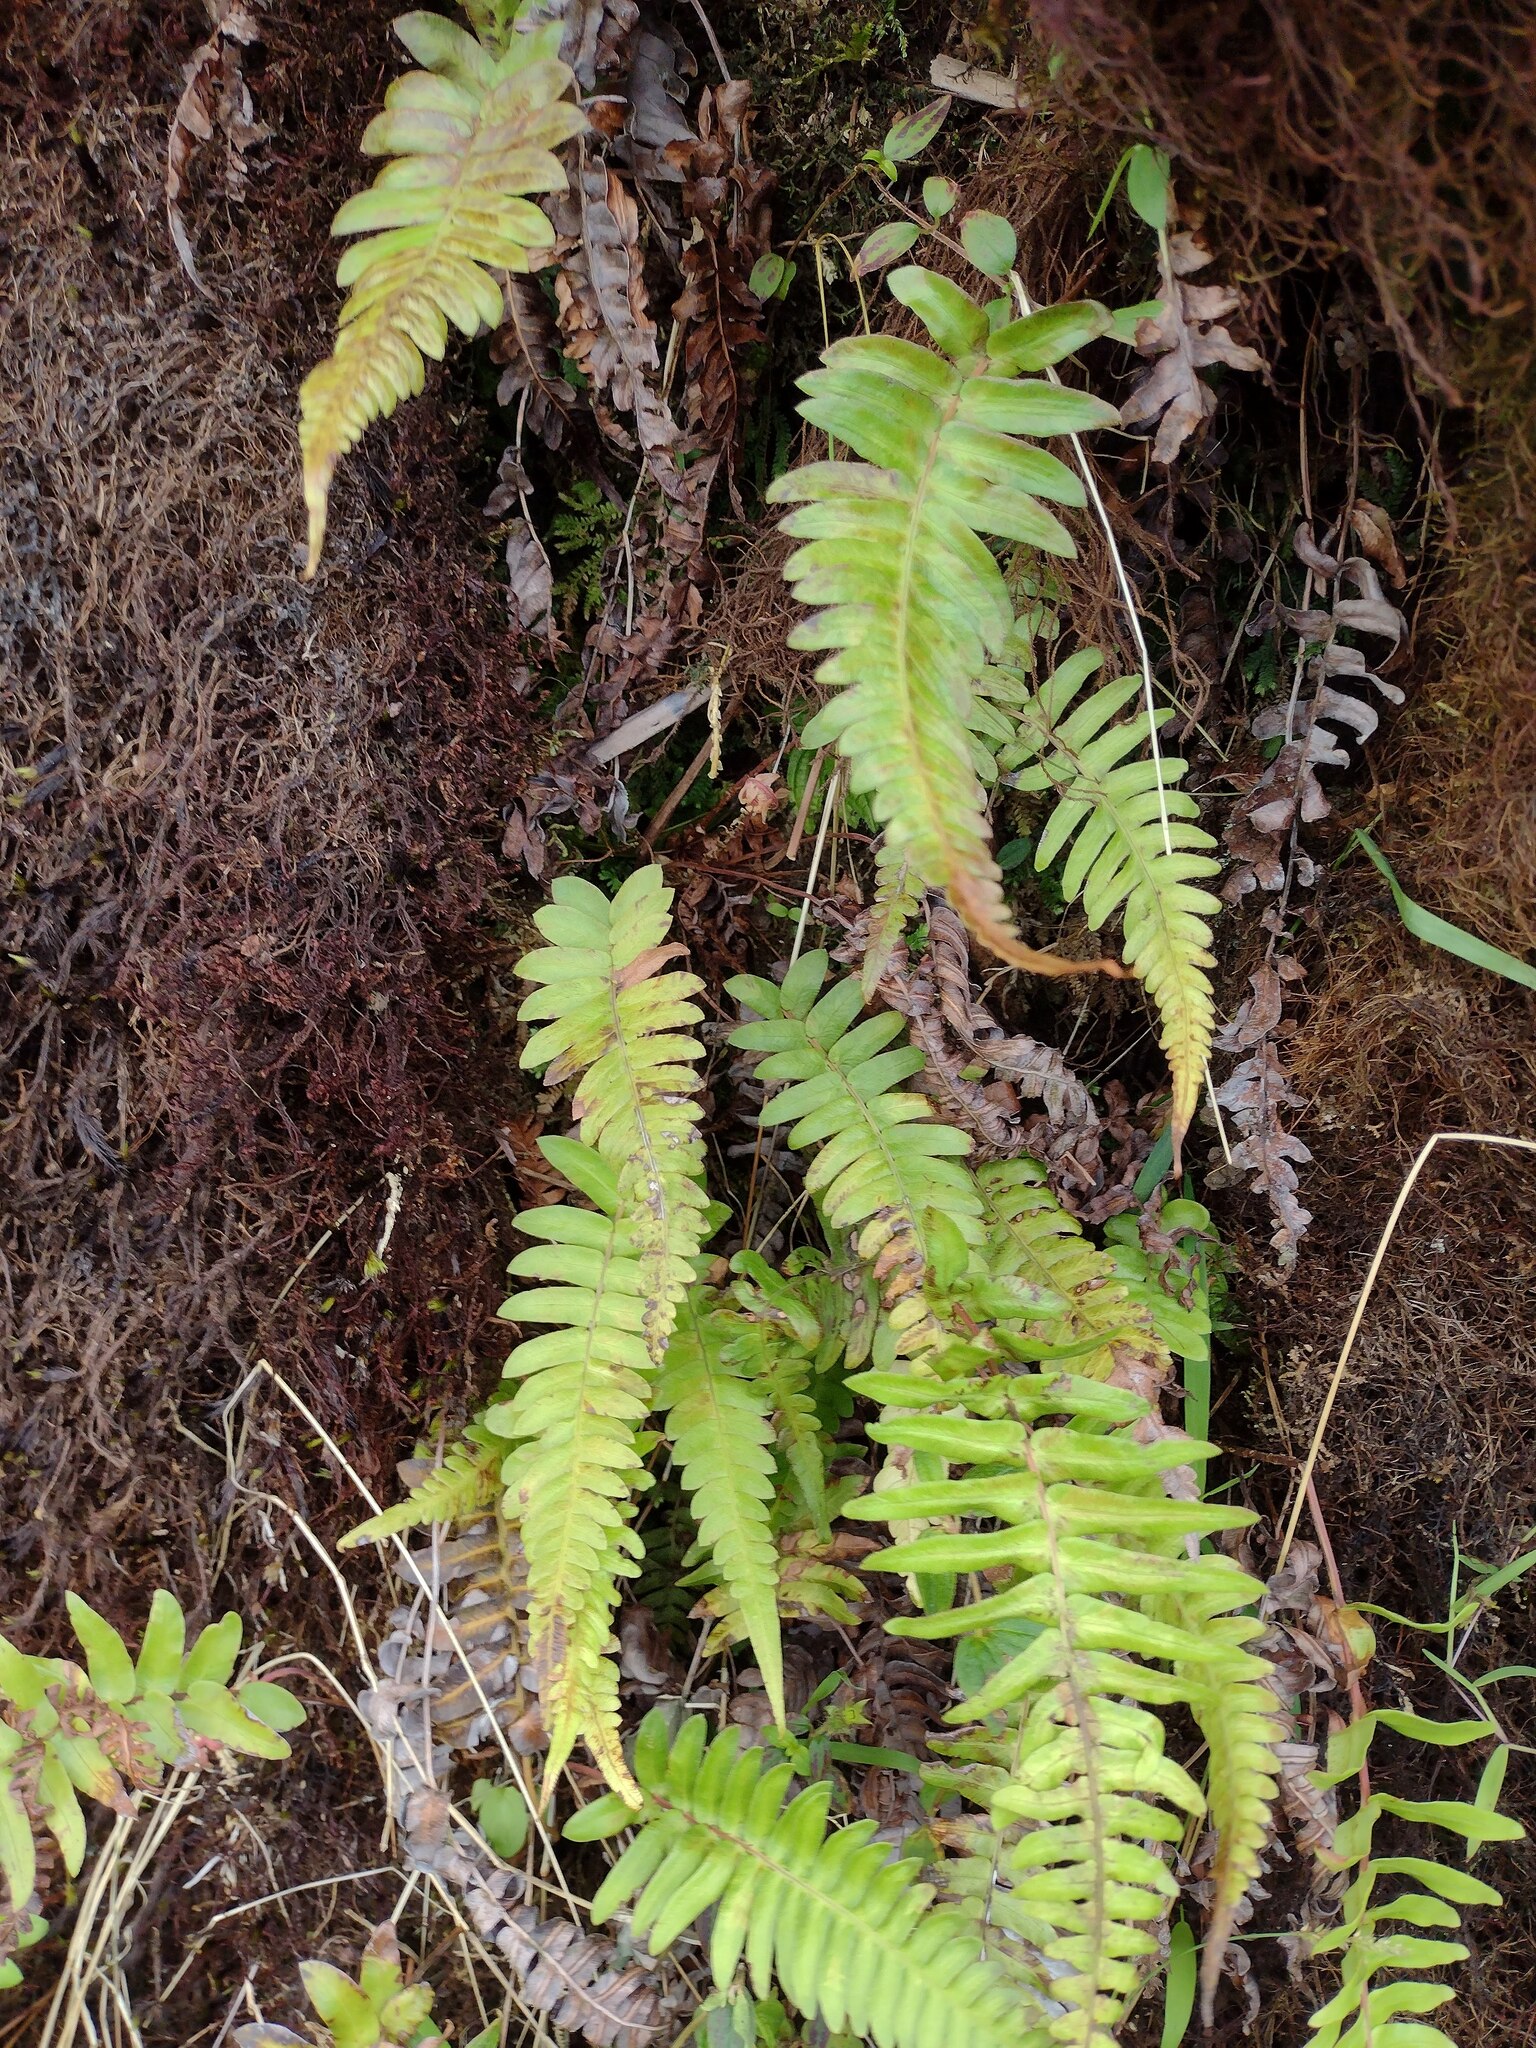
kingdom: Plantae
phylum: Tracheophyta
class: Polypodiopsida
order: Polypodiales
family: Blechnaceae
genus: Blechnum
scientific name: Blechnum appendiculatum
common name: Palm fern
